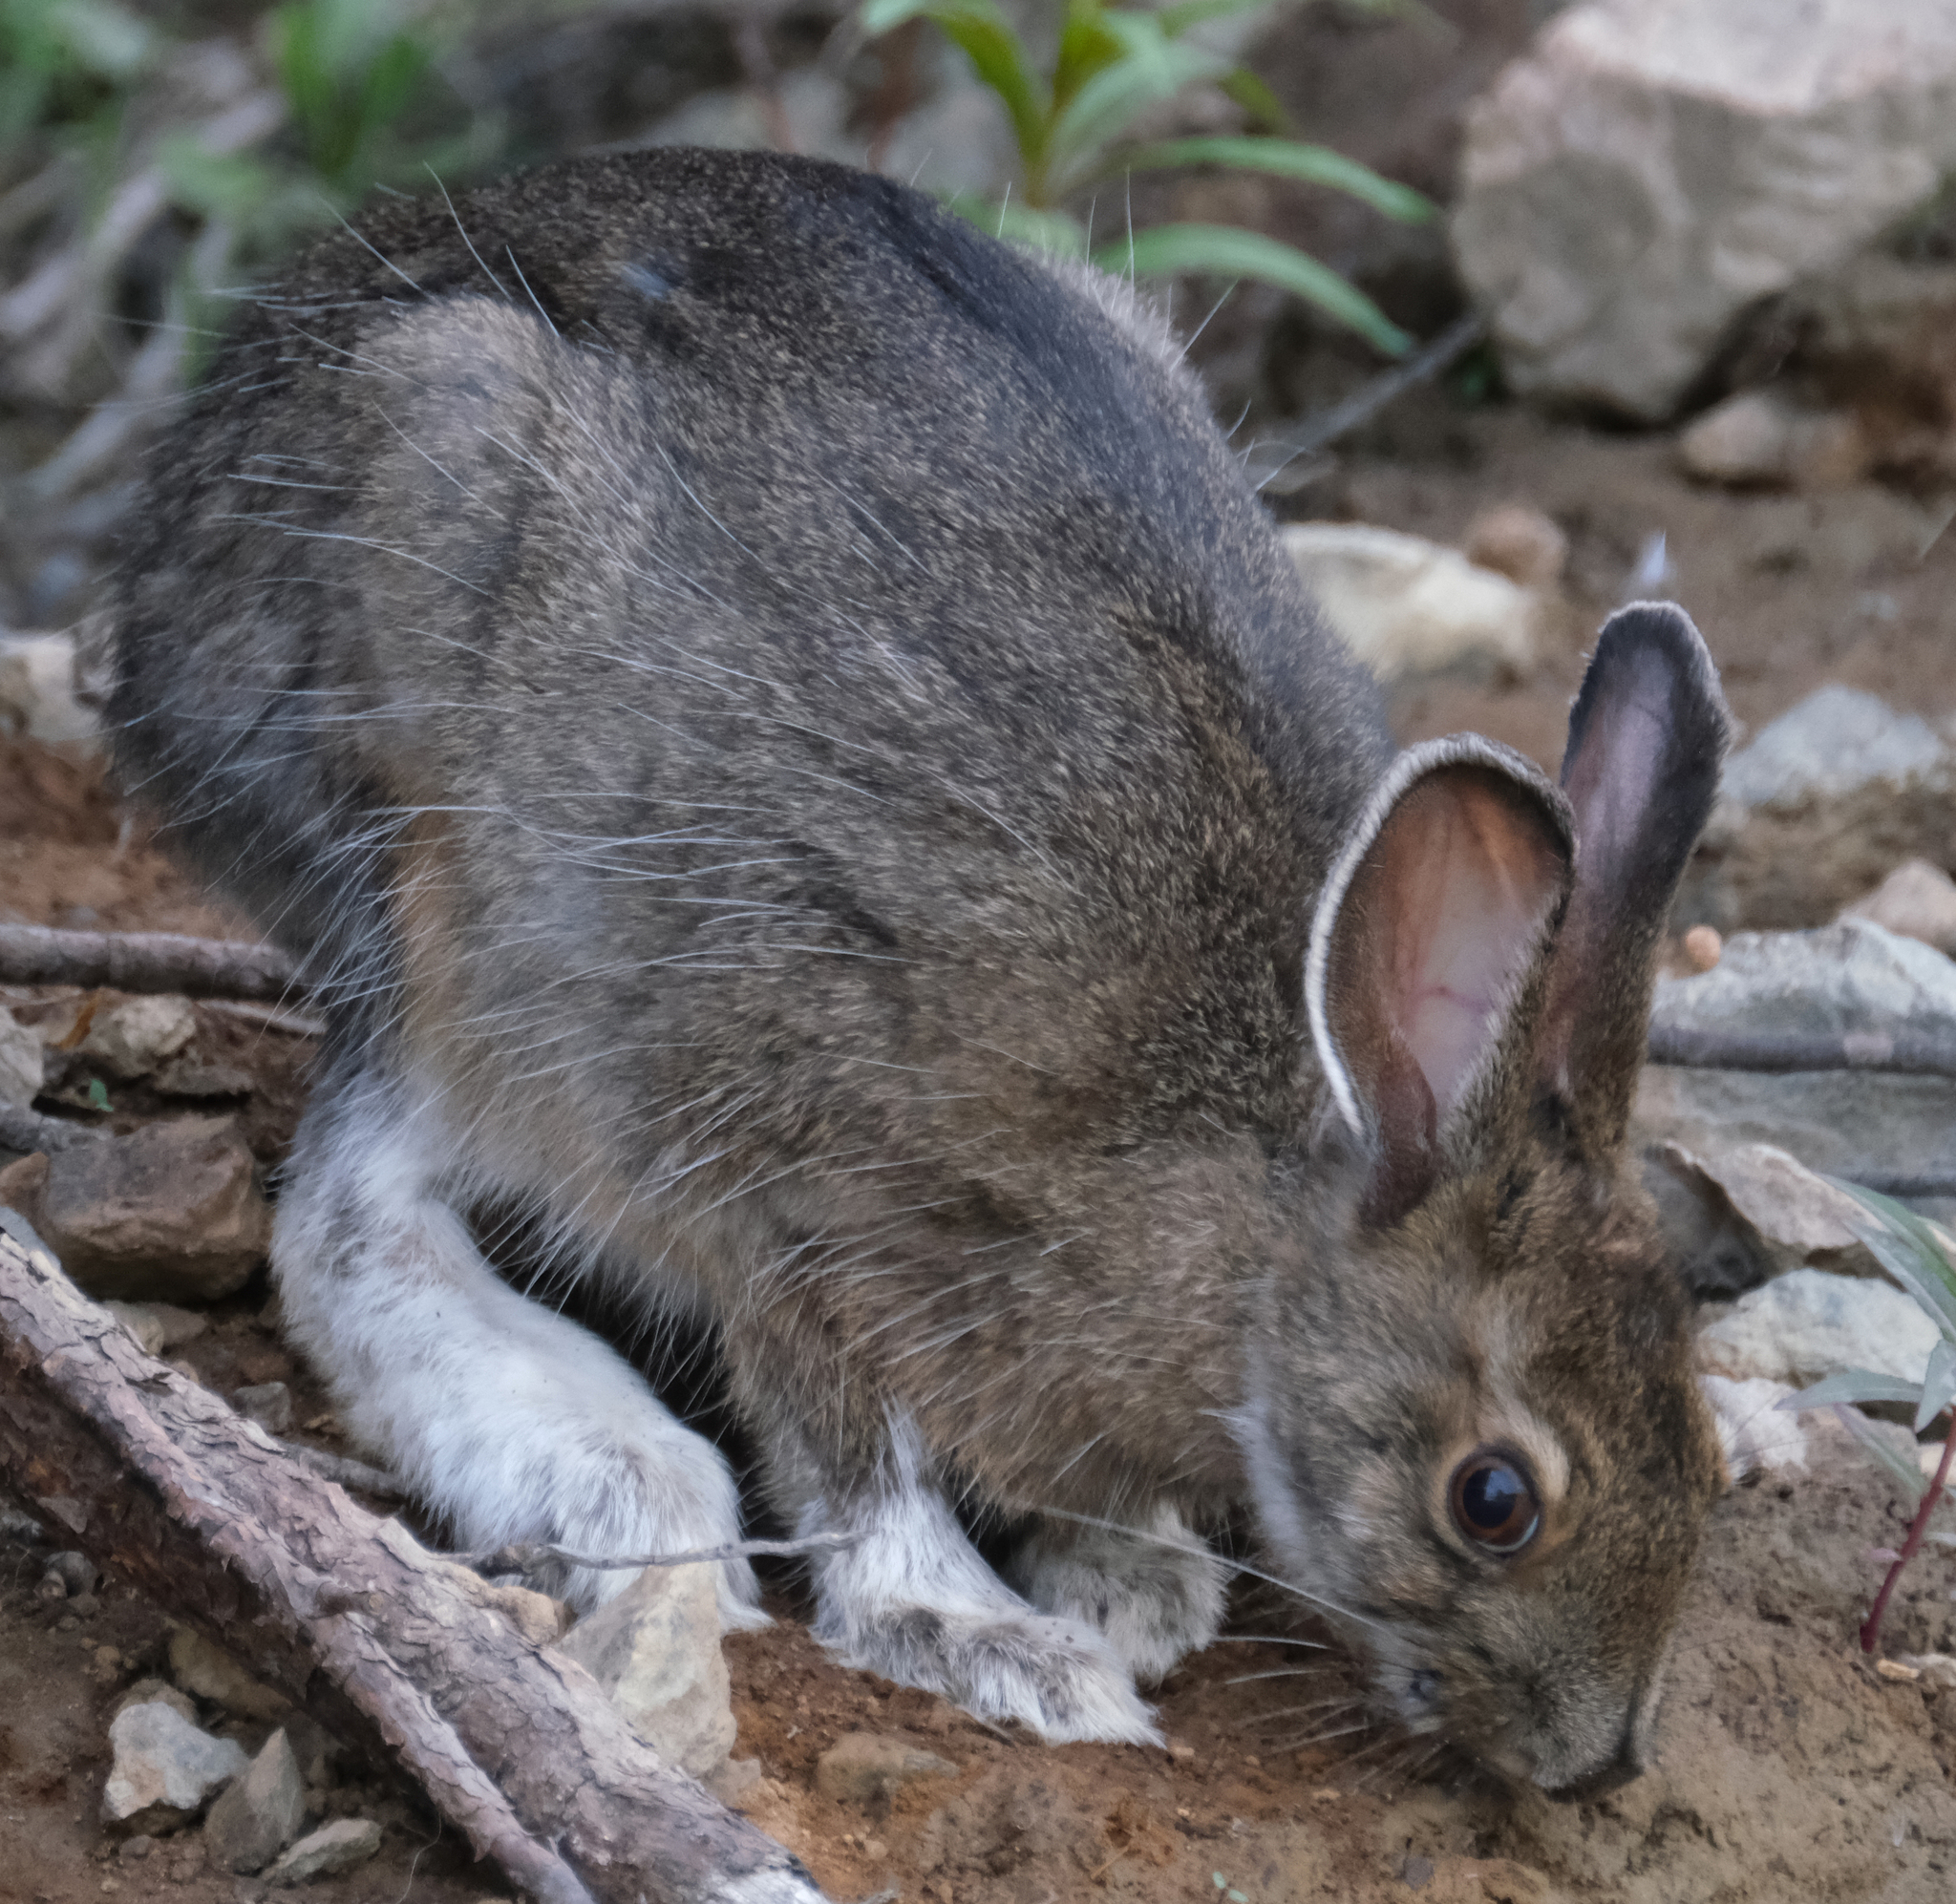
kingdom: Animalia
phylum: Chordata
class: Mammalia
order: Lagomorpha
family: Leporidae
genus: Lepus
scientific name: Lepus americanus
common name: Snowshoe hare
